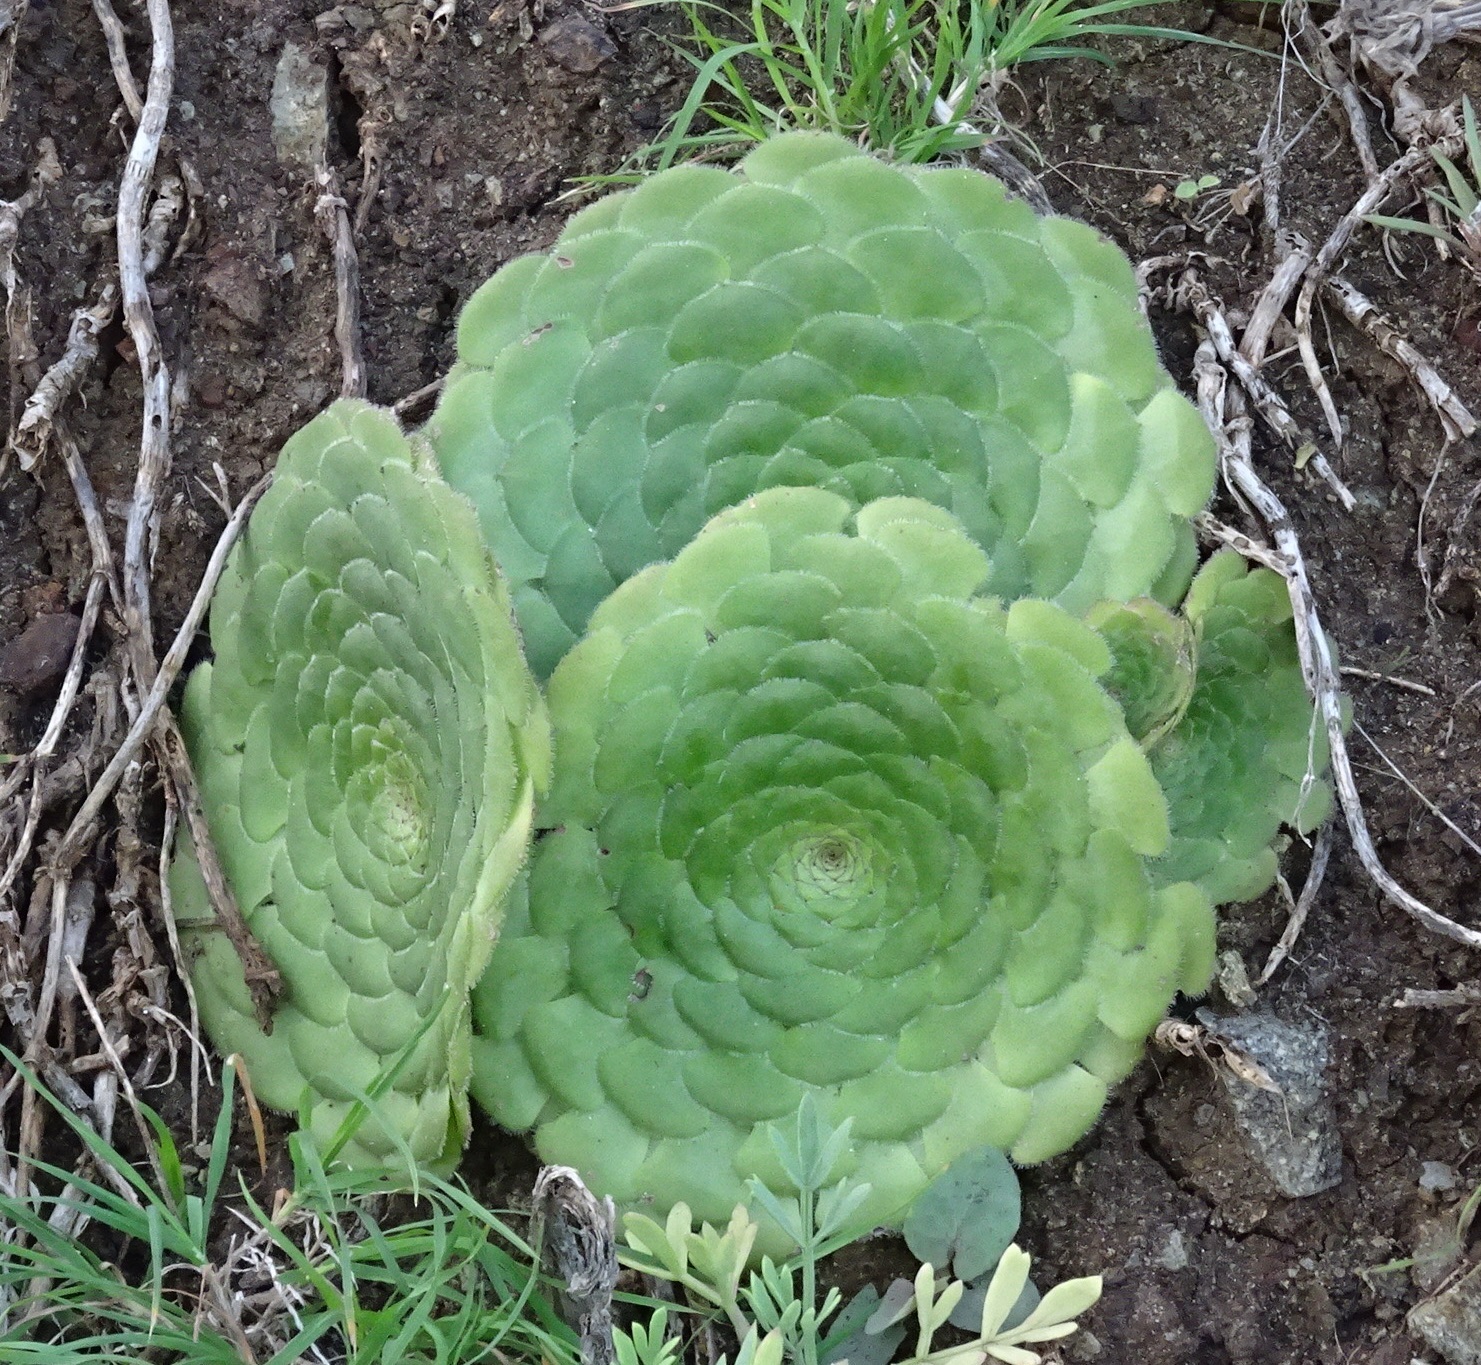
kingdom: Plantae
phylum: Tracheophyta
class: Magnoliopsida
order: Saxifragales
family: Crassulaceae
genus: Aeonium
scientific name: Aeonium tabulaeforme
